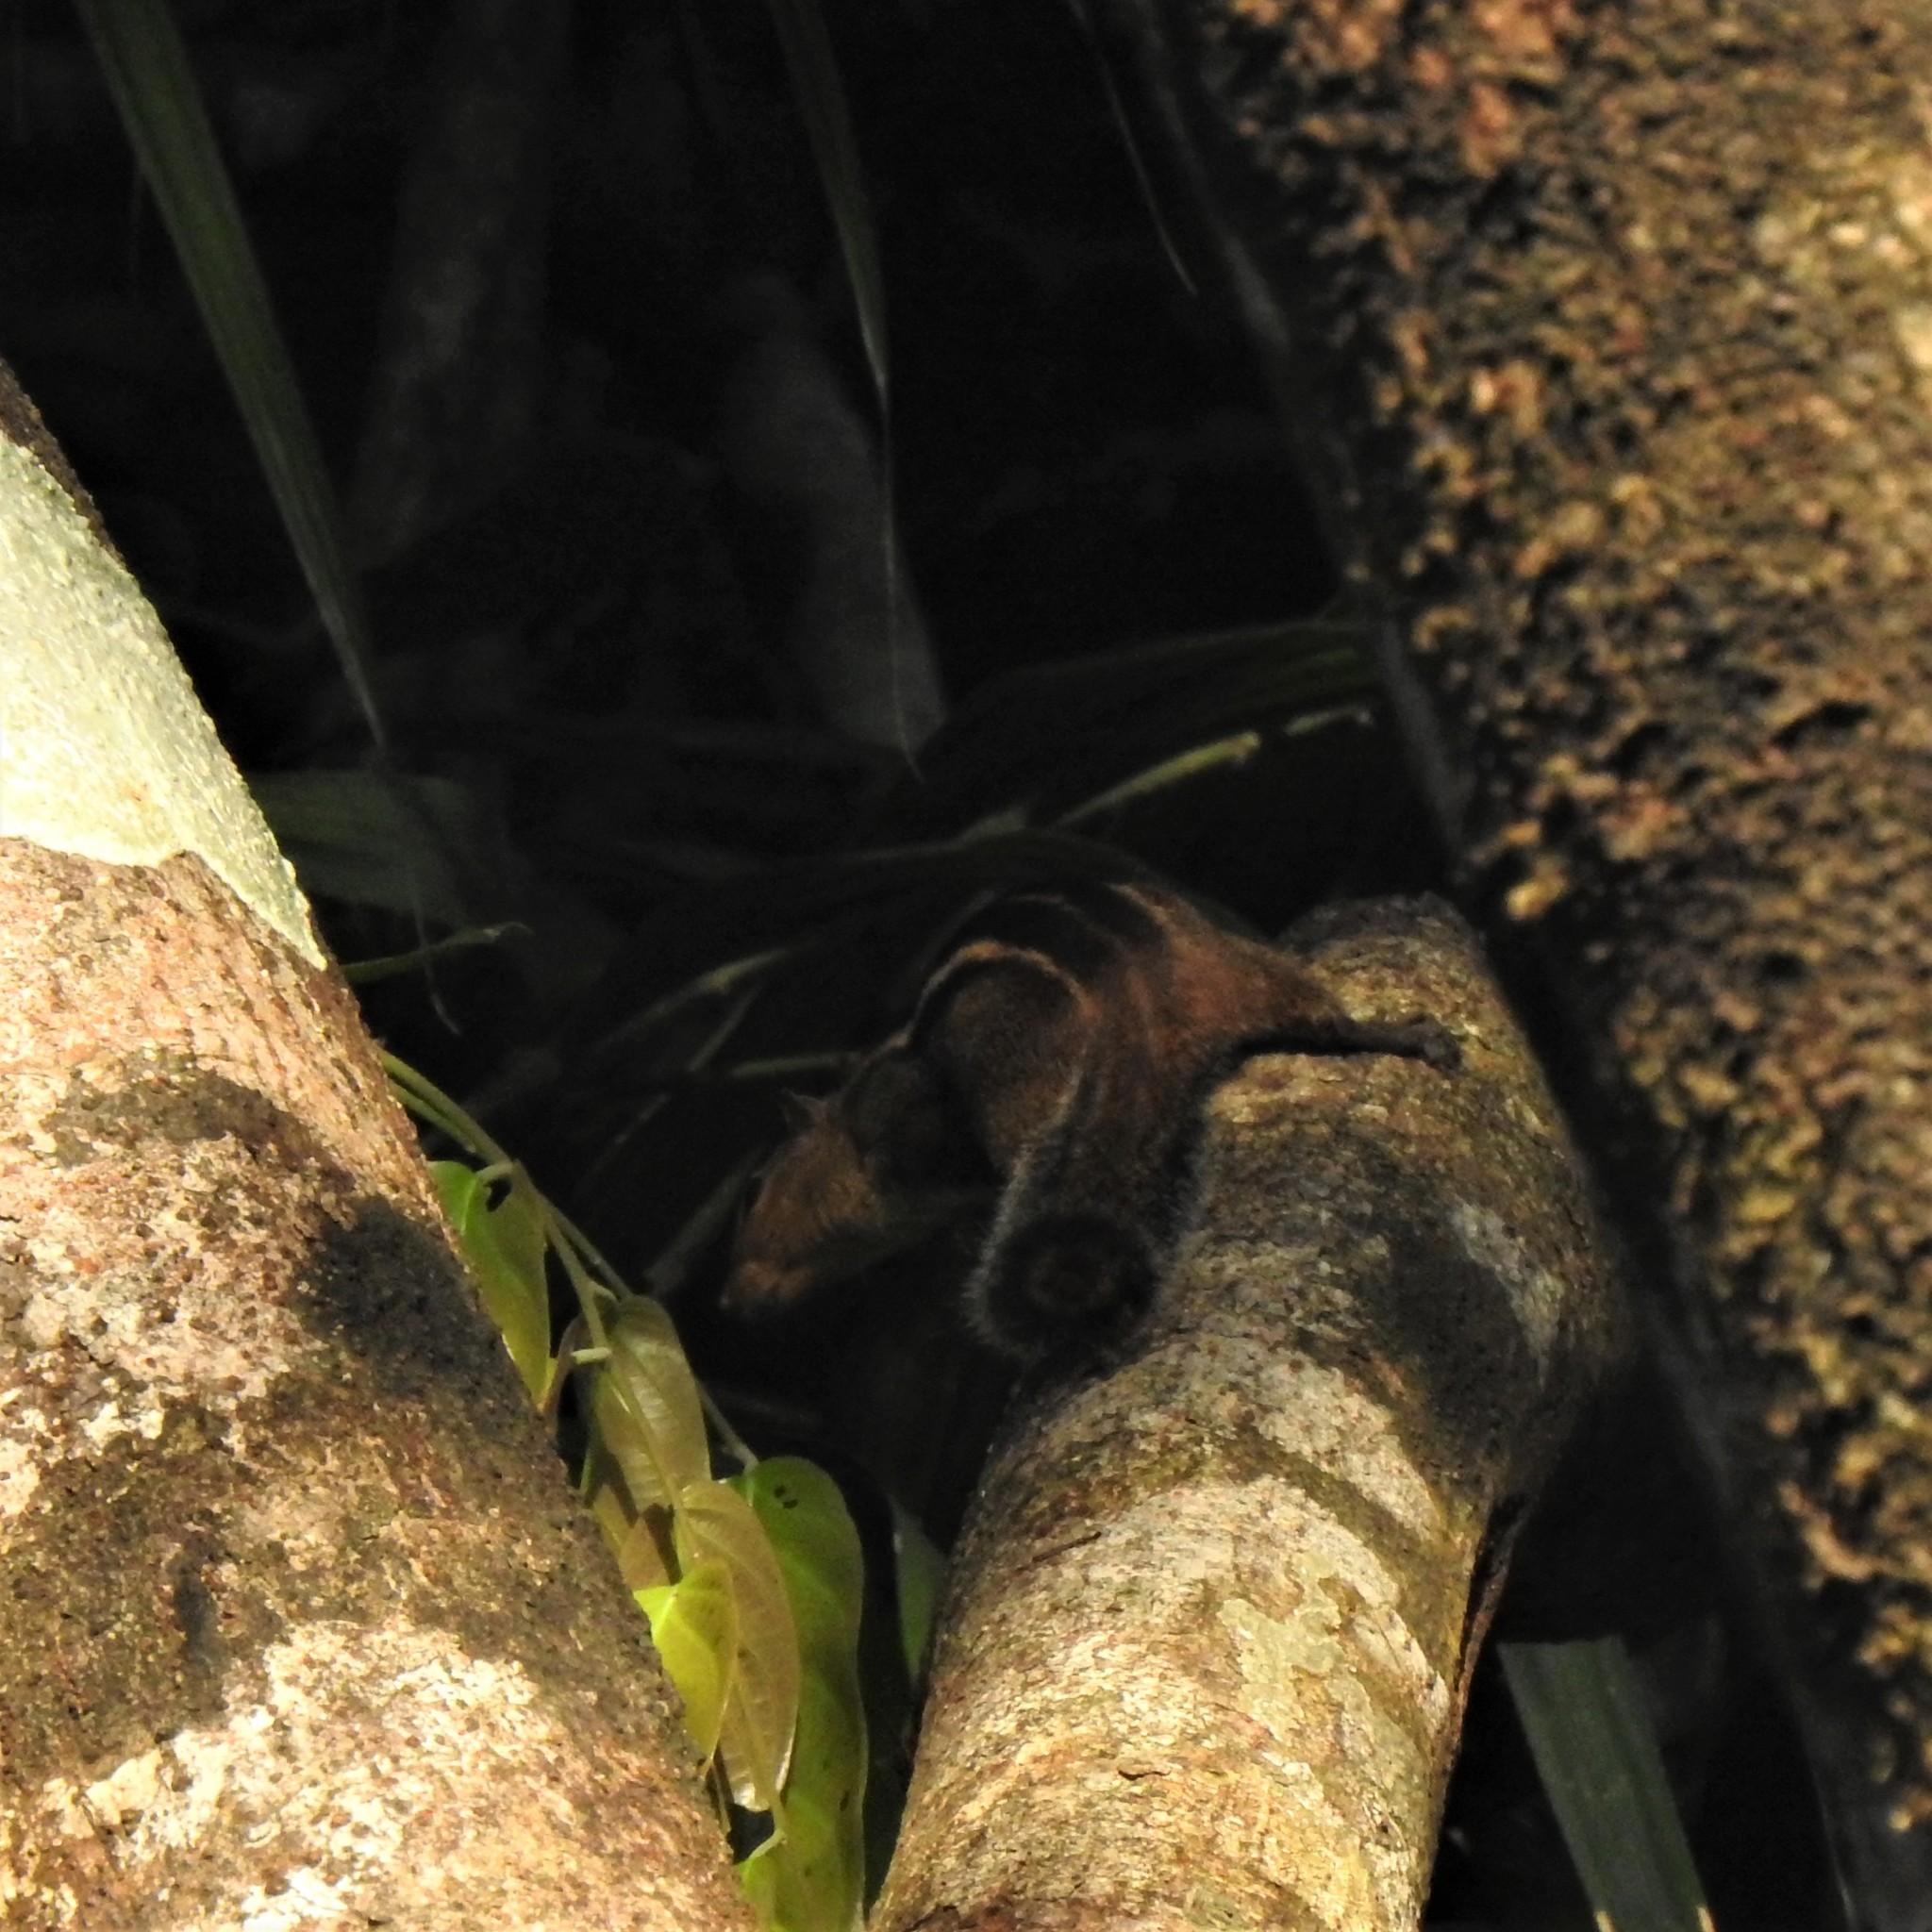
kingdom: Animalia
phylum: Chordata
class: Mammalia
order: Rodentia
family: Sciuridae
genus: Funambulus
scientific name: Funambulus tristriatus
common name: Jungle palm squirrel
